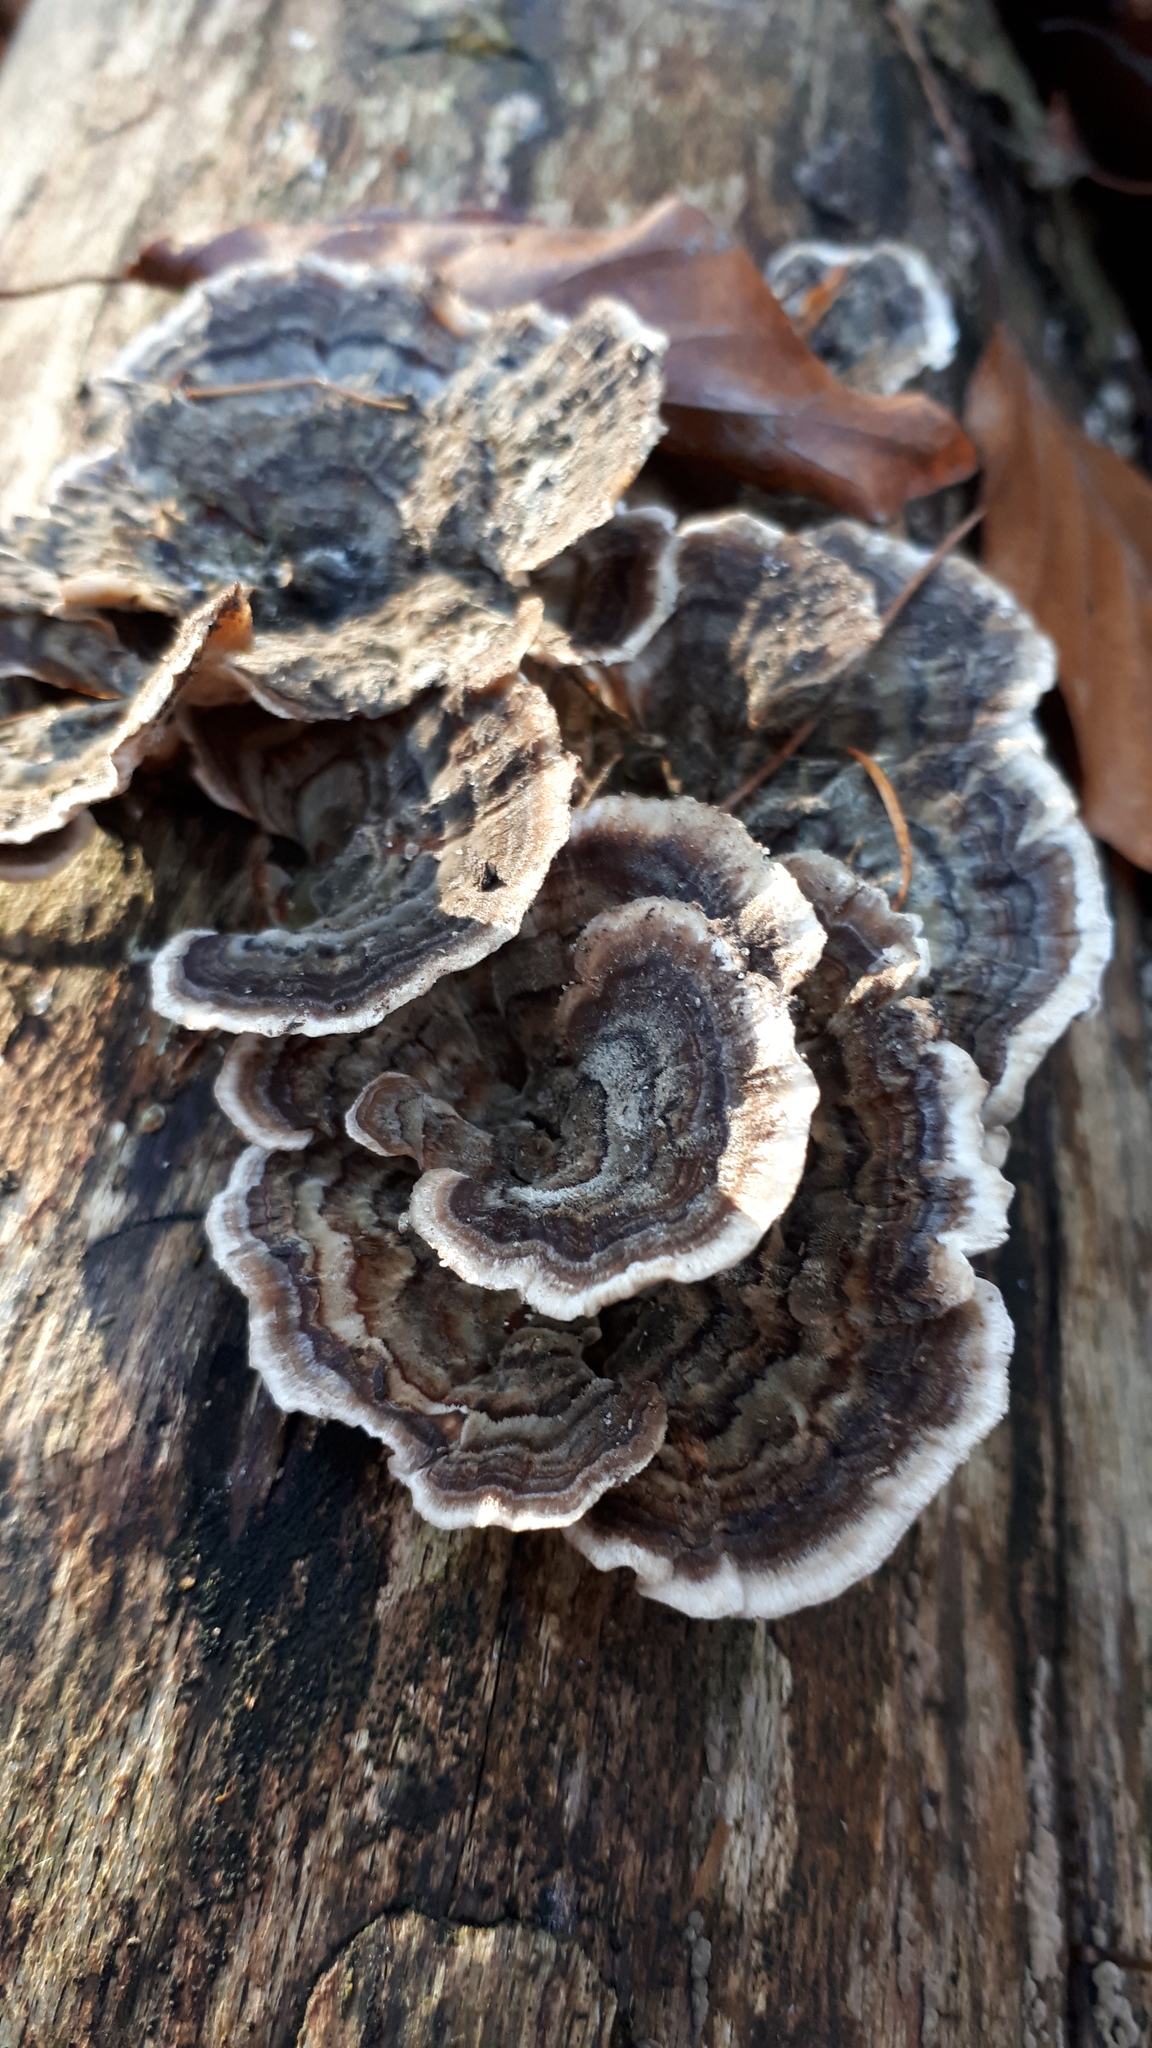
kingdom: Fungi
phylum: Basidiomycota
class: Agaricomycetes
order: Polyporales
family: Polyporaceae
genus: Trametes
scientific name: Trametes versicolor
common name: Turkeytail
